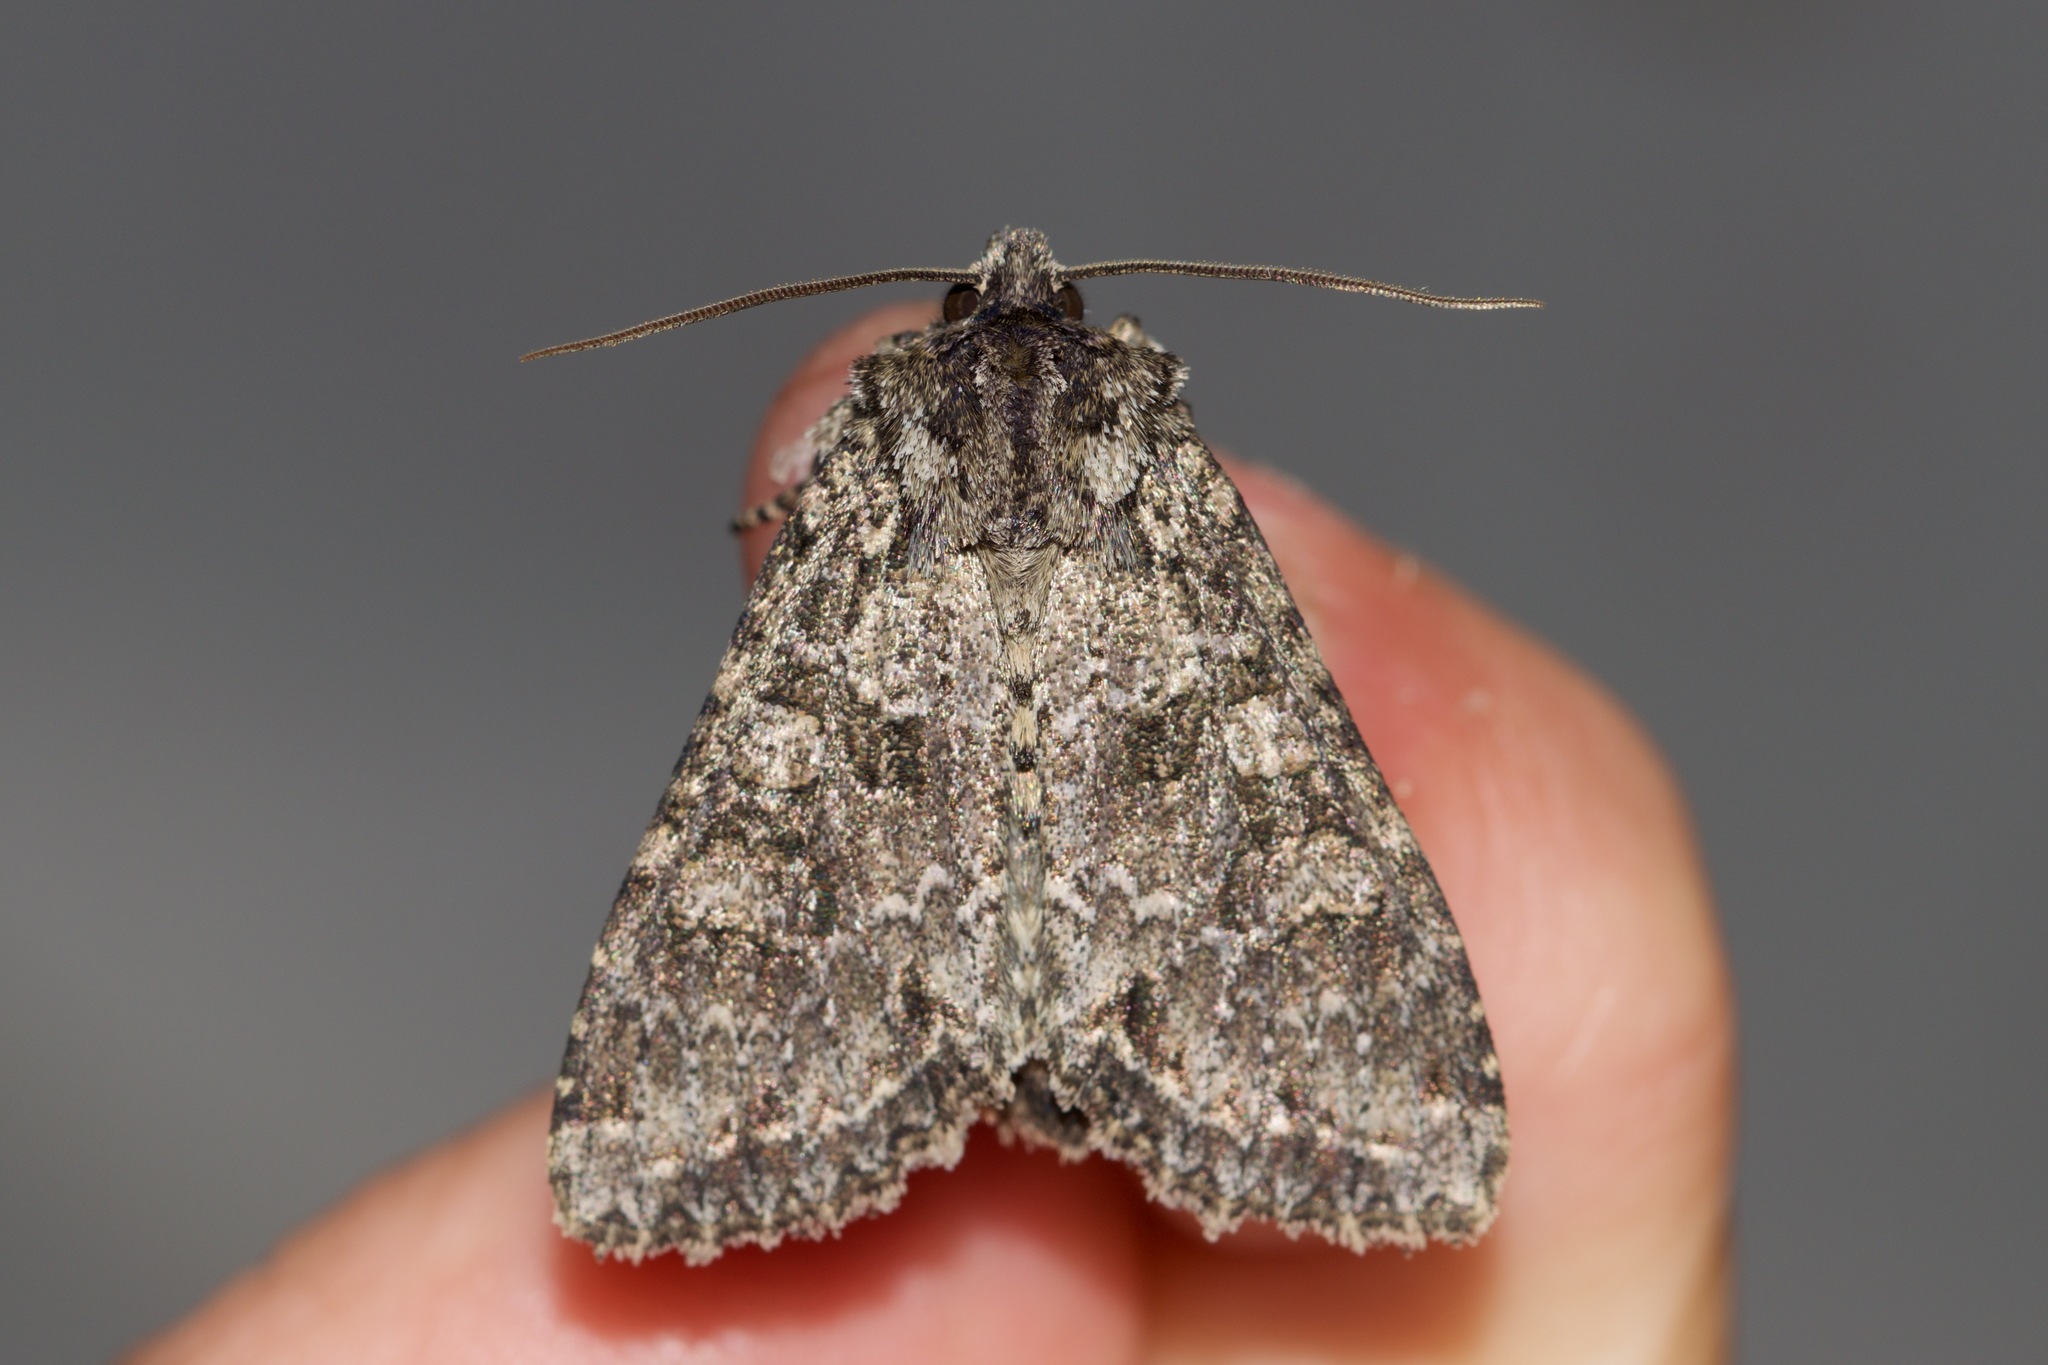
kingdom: Animalia
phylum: Arthropoda
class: Insecta
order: Lepidoptera
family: Noctuidae
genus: Polia
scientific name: Polia imbrifera
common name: Cloudy arches moth
